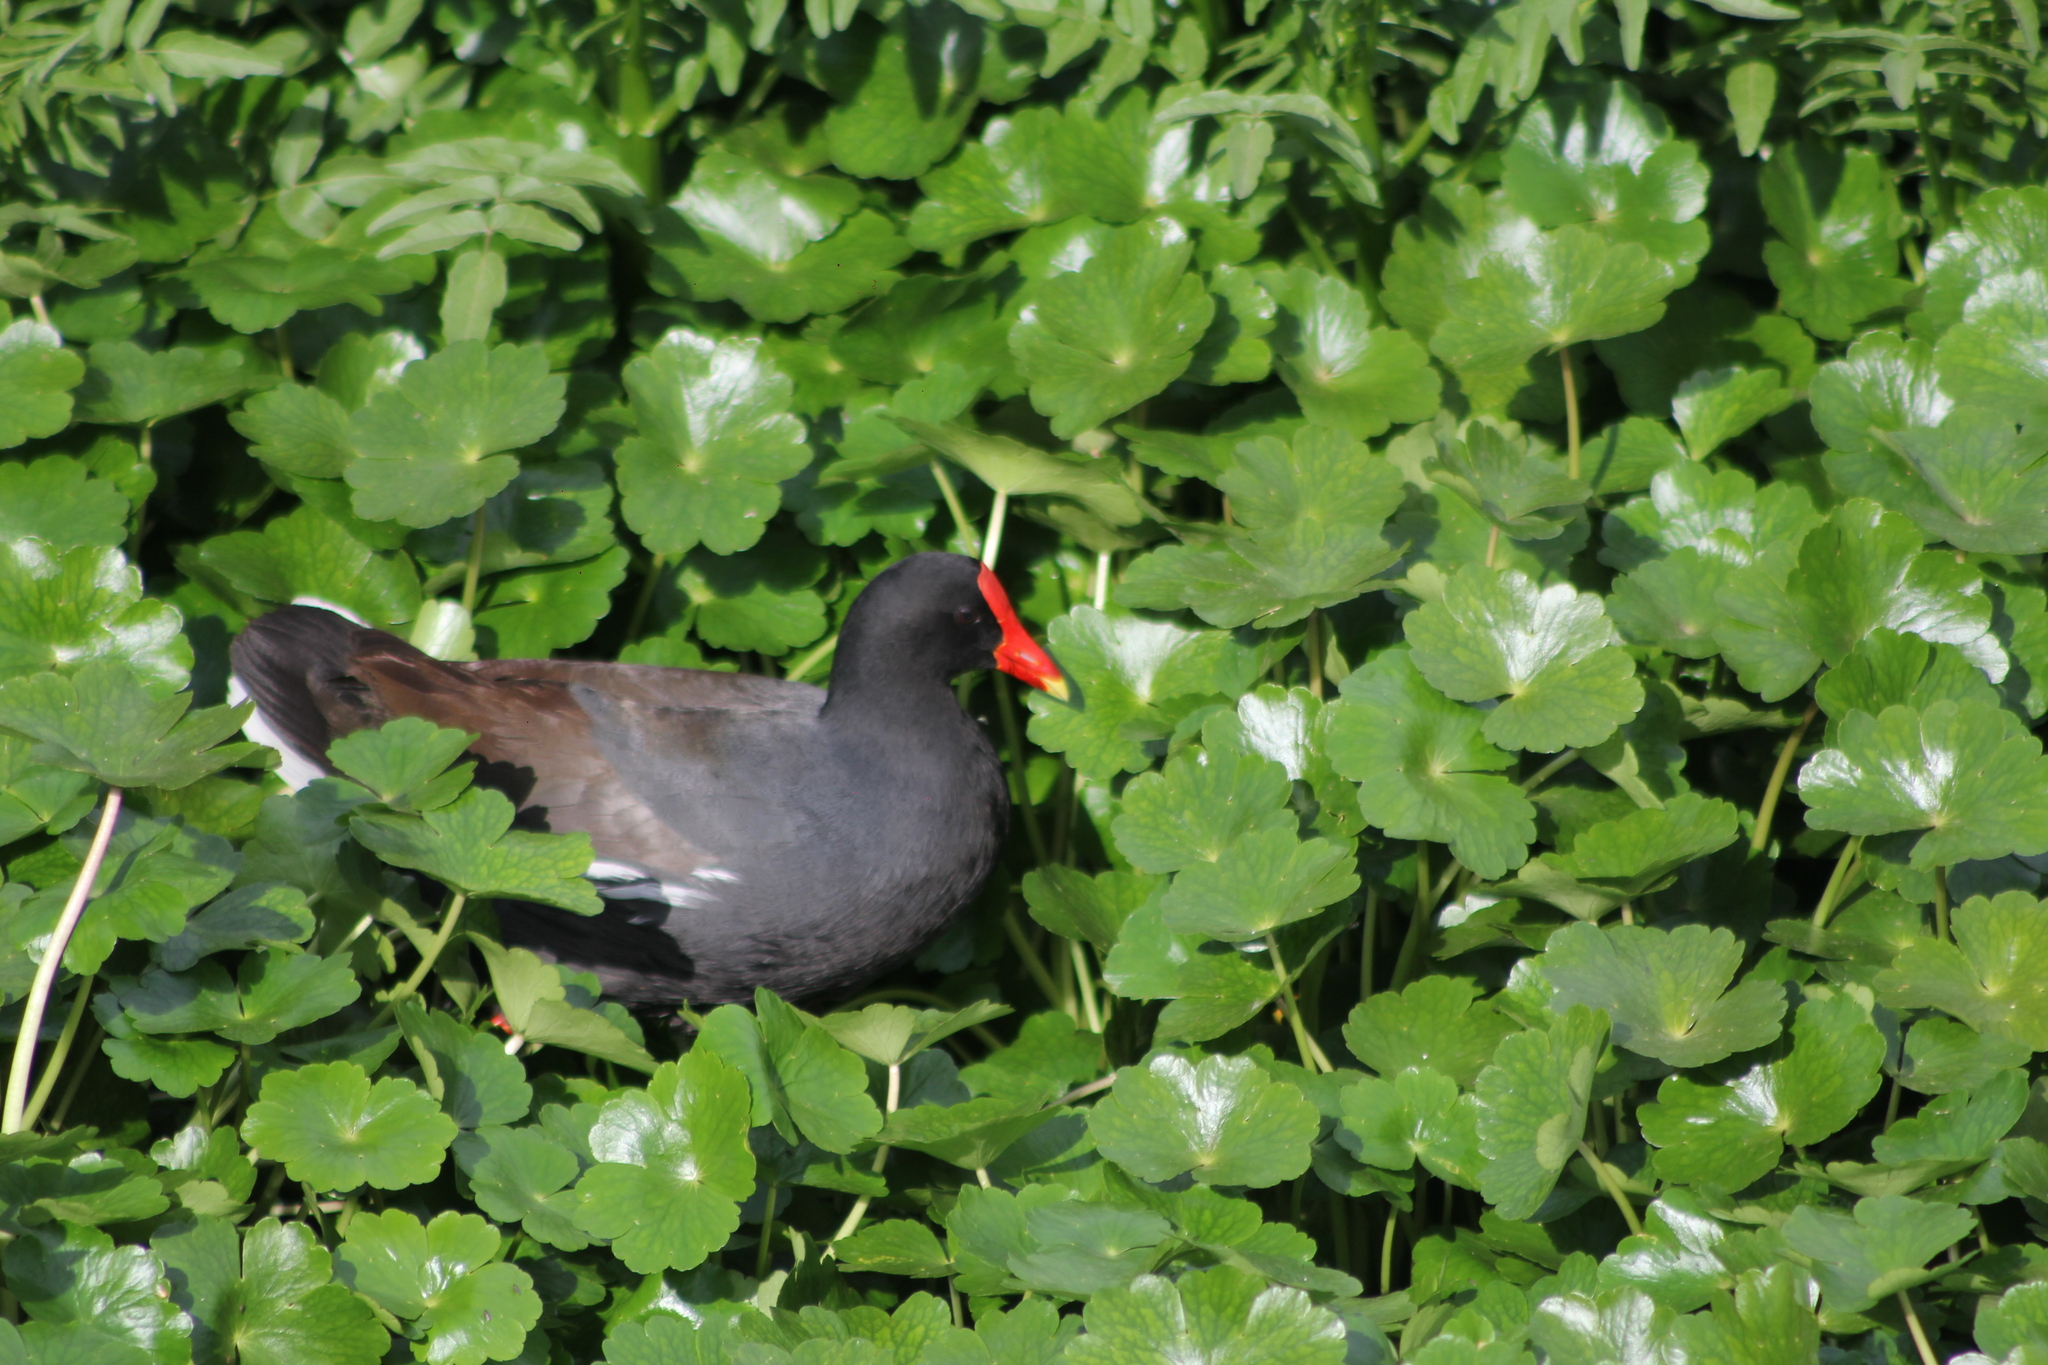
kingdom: Animalia
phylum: Chordata
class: Aves
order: Gruiformes
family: Rallidae
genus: Gallinula
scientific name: Gallinula chloropus
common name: Common moorhen
